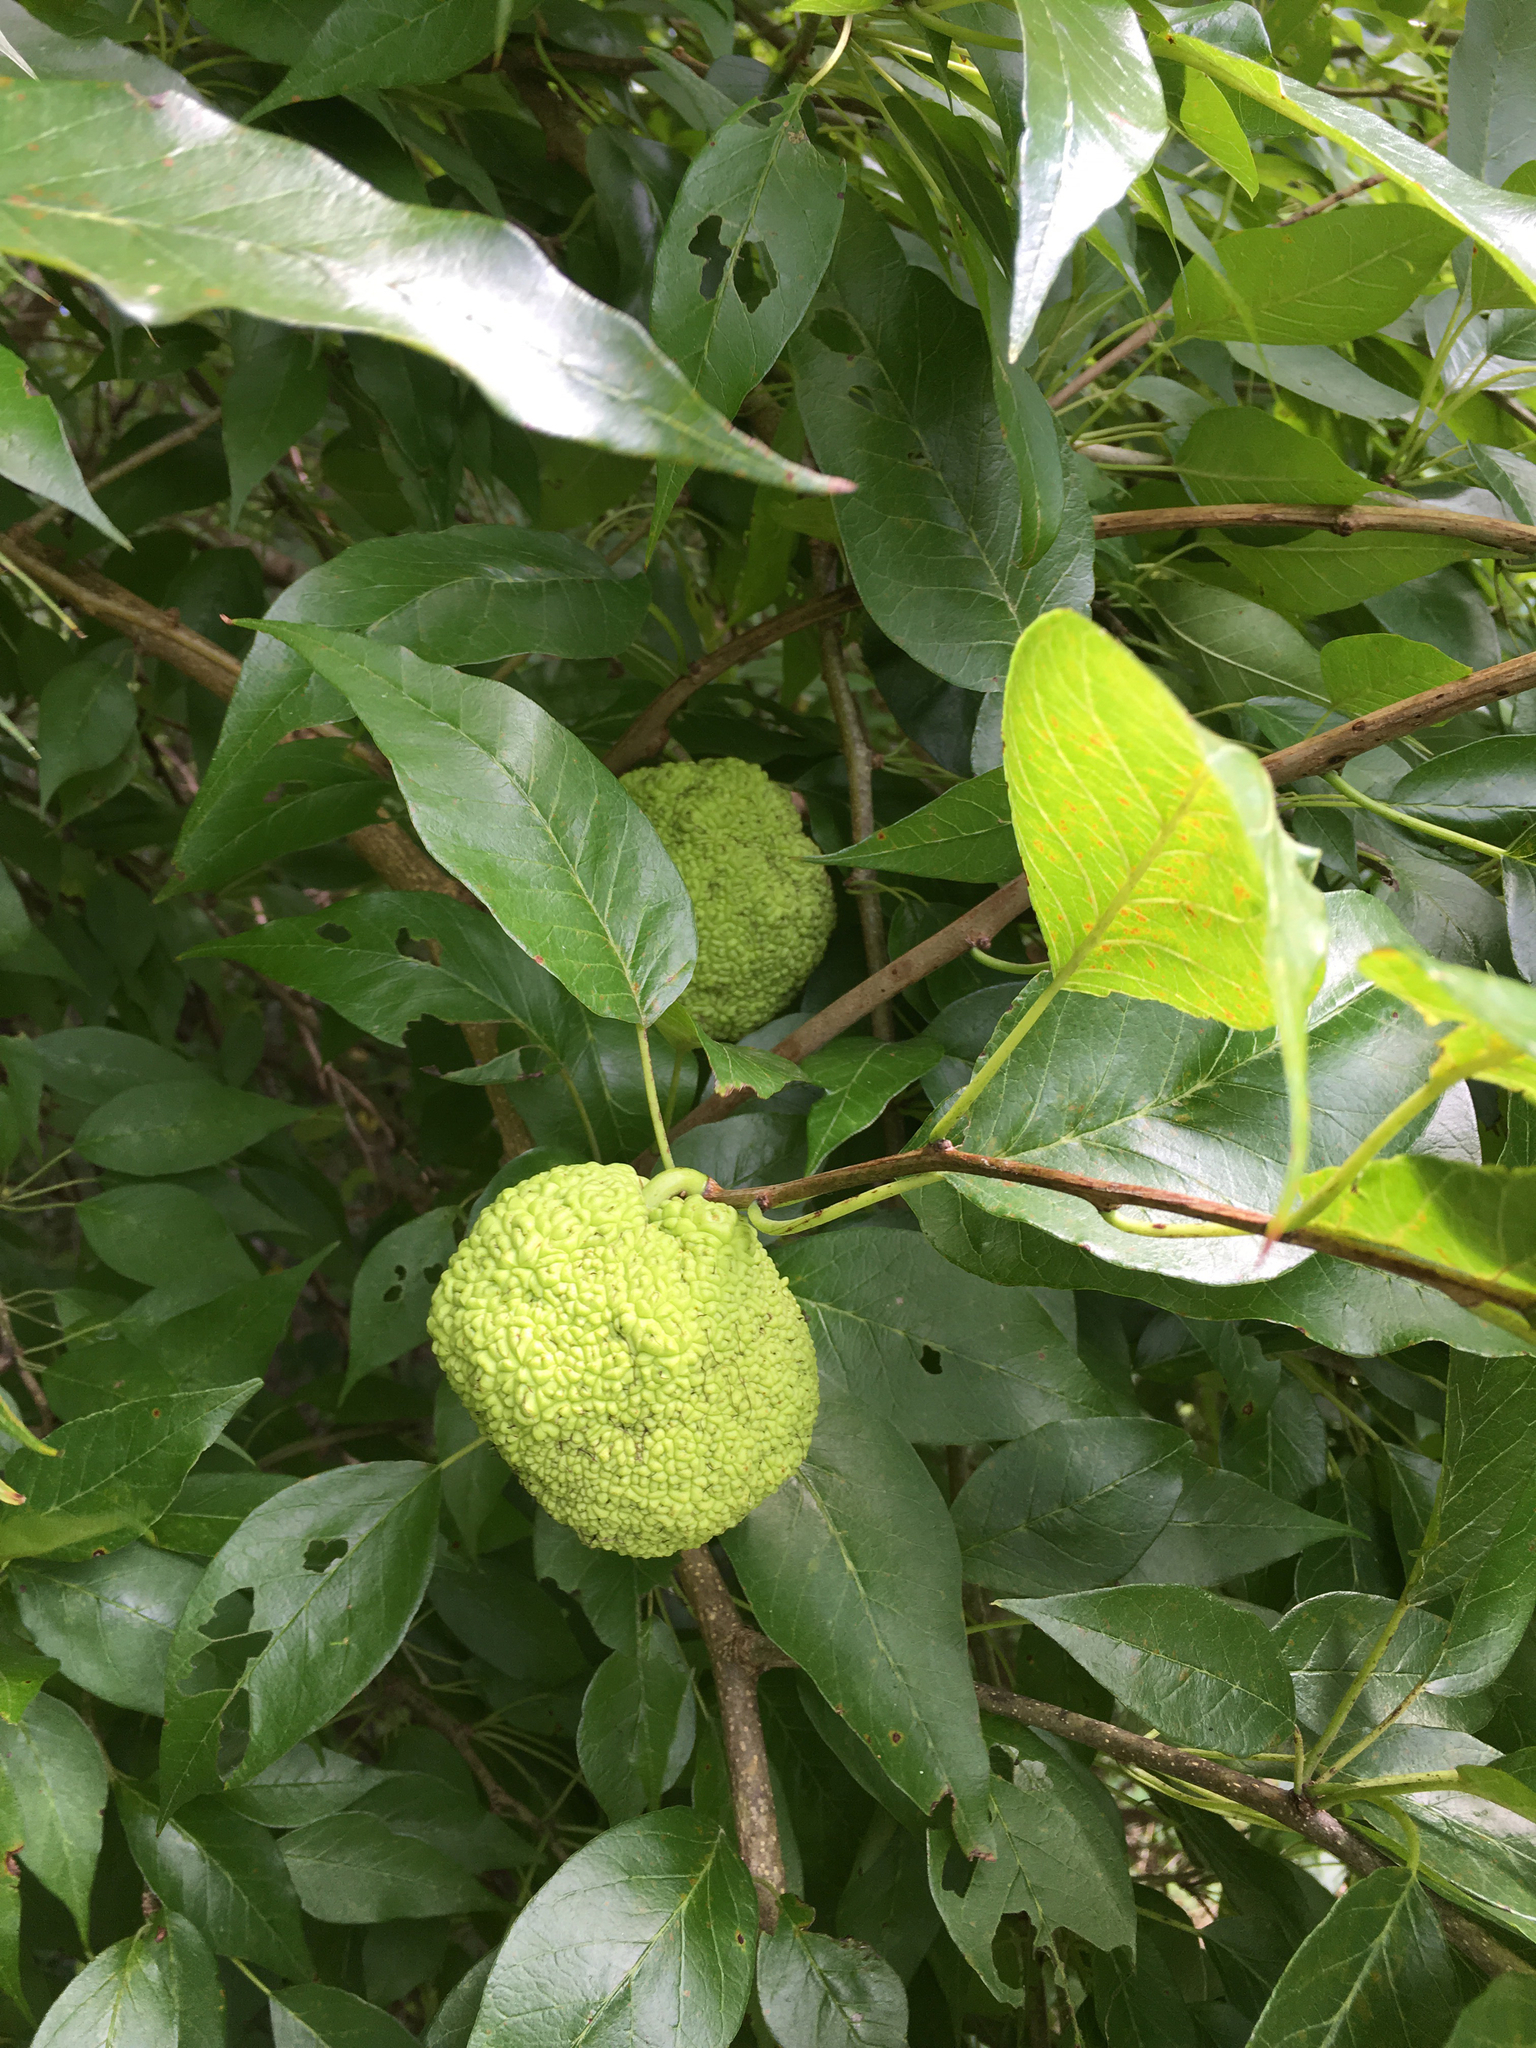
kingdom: Plantae
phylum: Tracheophyta
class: Magnoliopsida
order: Rosales
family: Moraceae
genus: Maclura
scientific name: Maclura pomifera
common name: Osage-orange
